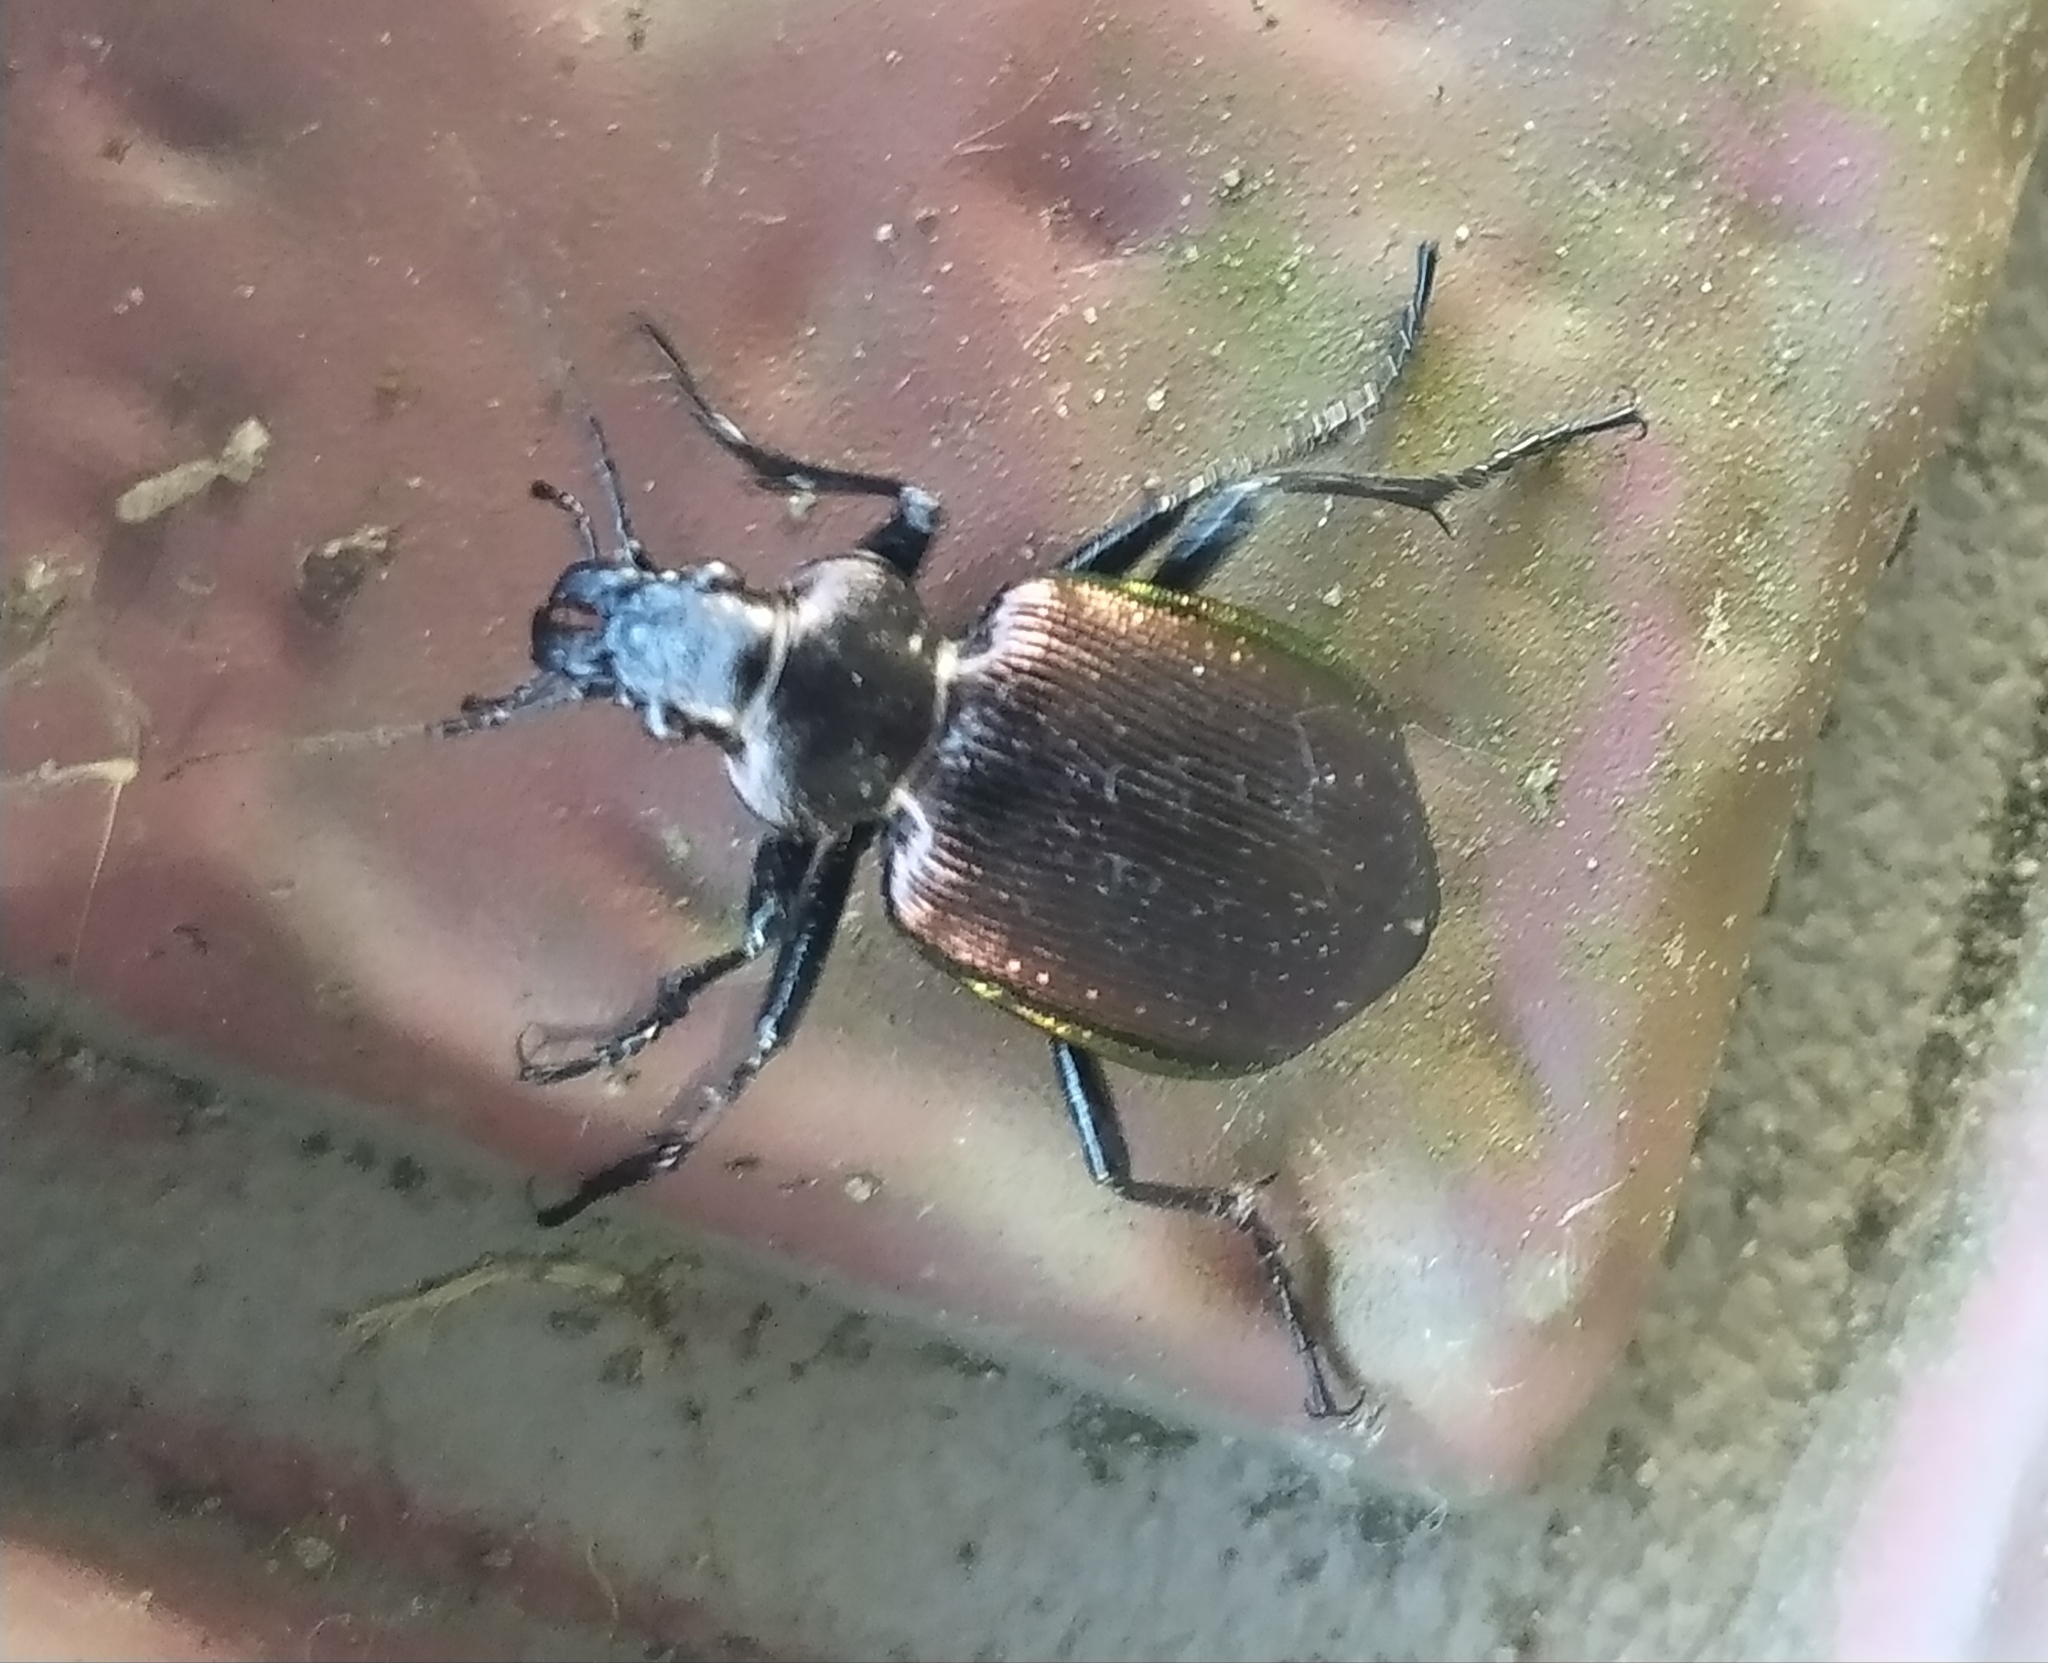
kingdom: Animalia
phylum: Arthropoda
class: Insecta
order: Coleoptera
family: Carabidae
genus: Calosoma
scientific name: Calosoma inquisitor
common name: Caterpillar-hunter
